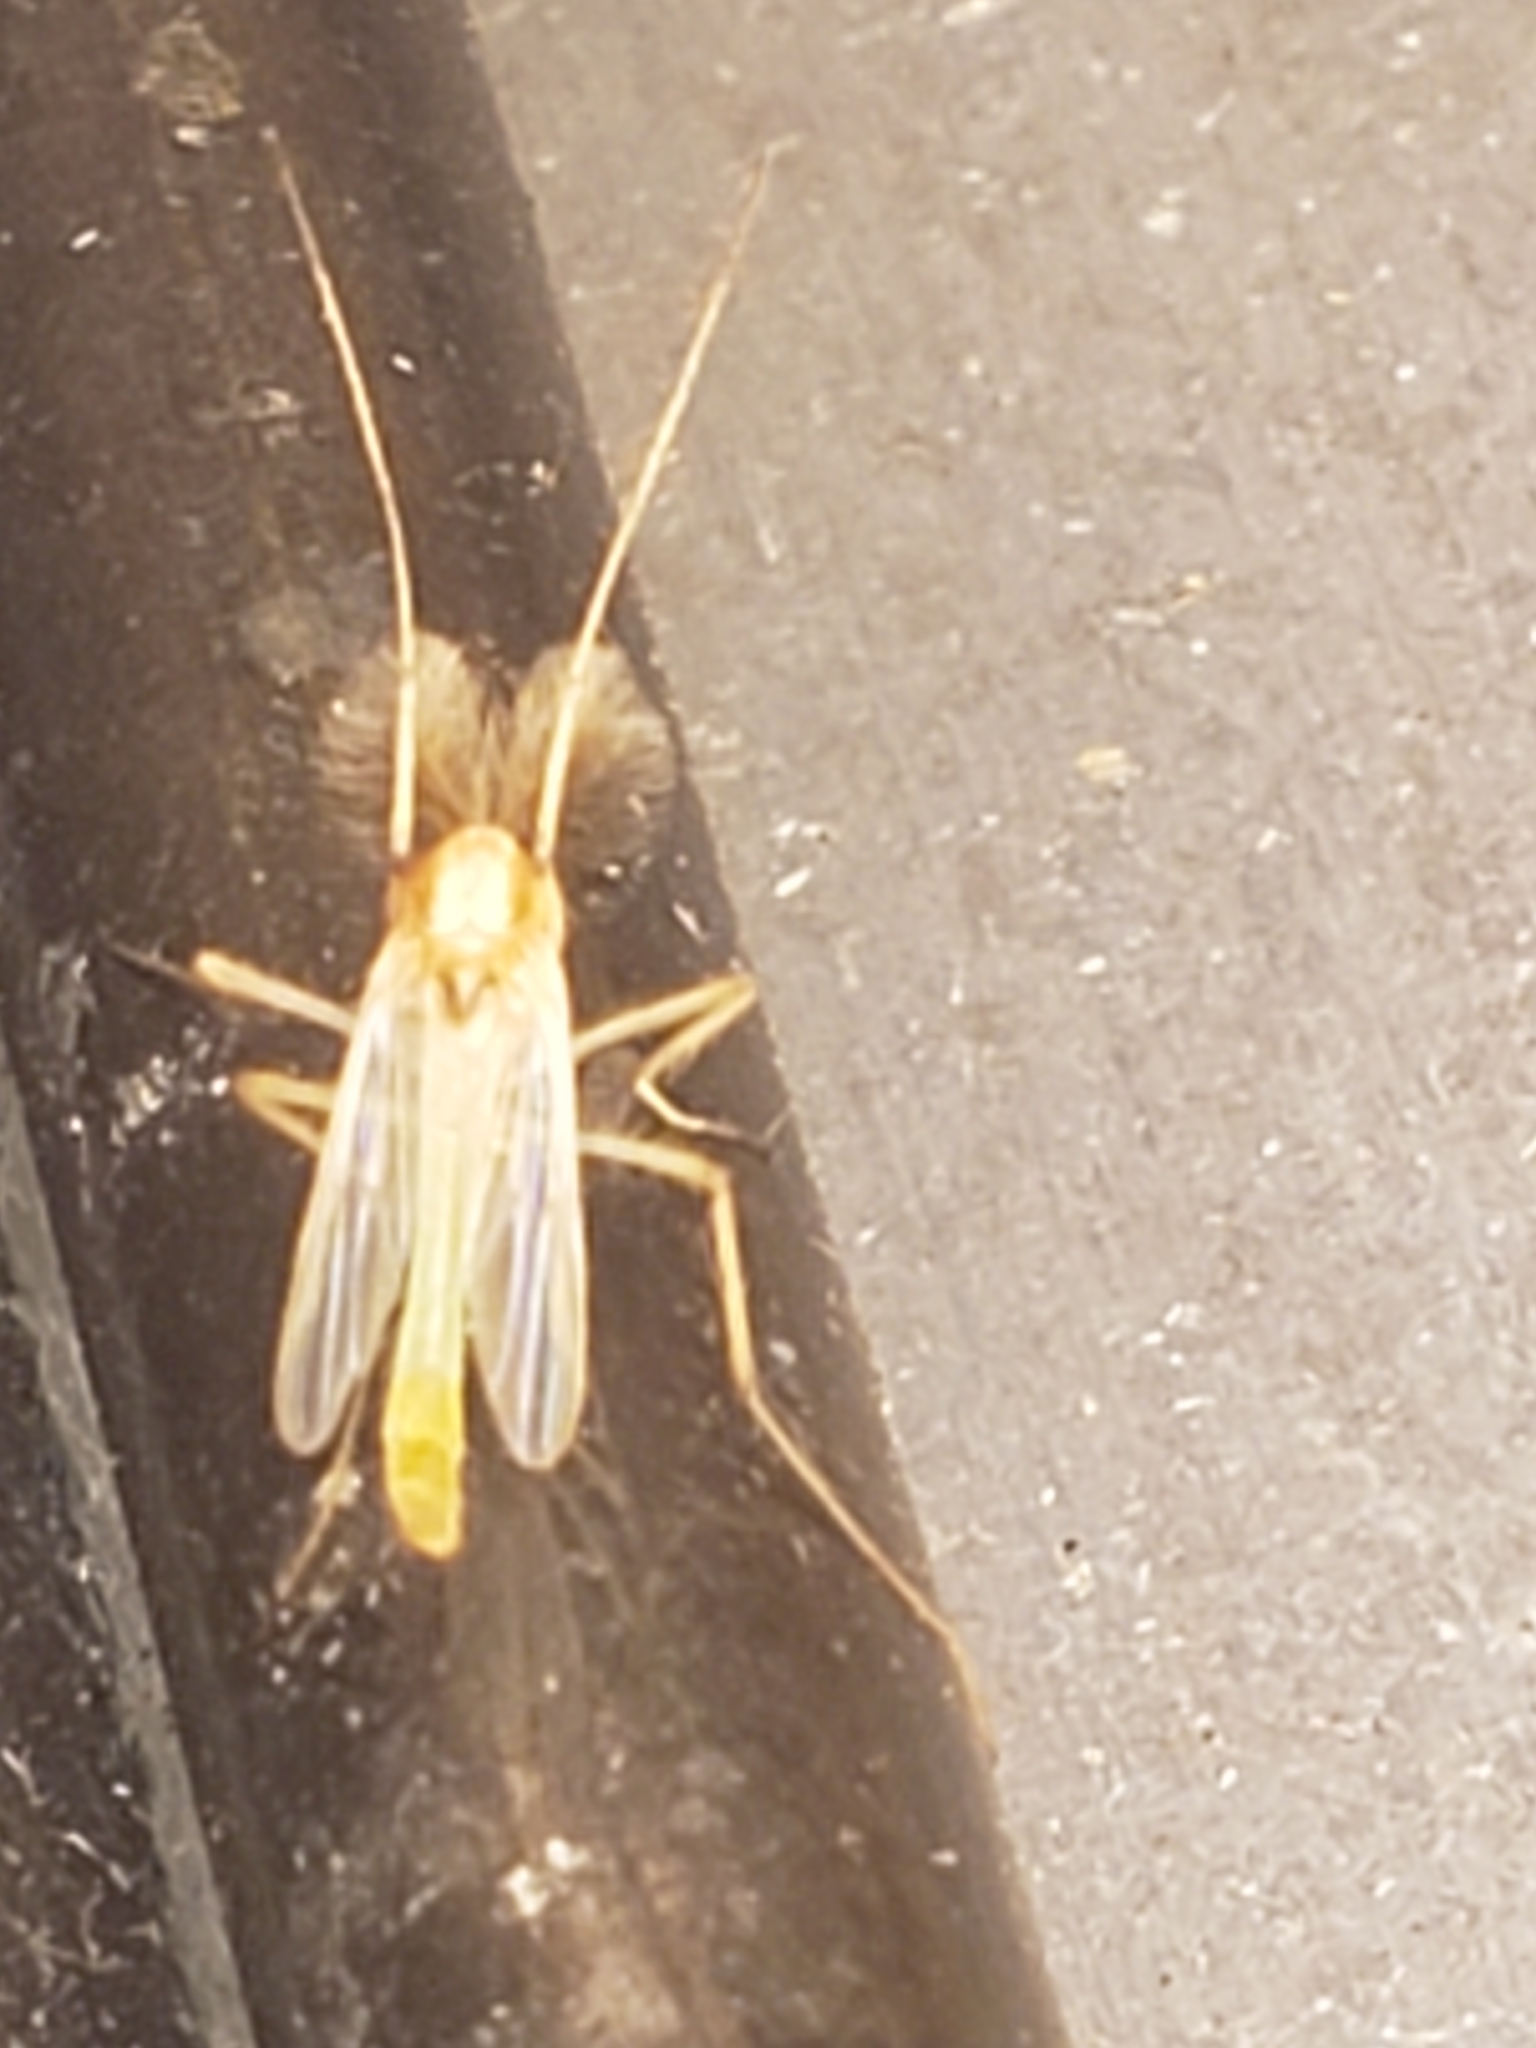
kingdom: Animalia
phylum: Arthropoda
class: Insecta
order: Diptera
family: Chironomidae
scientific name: Chironomidae
